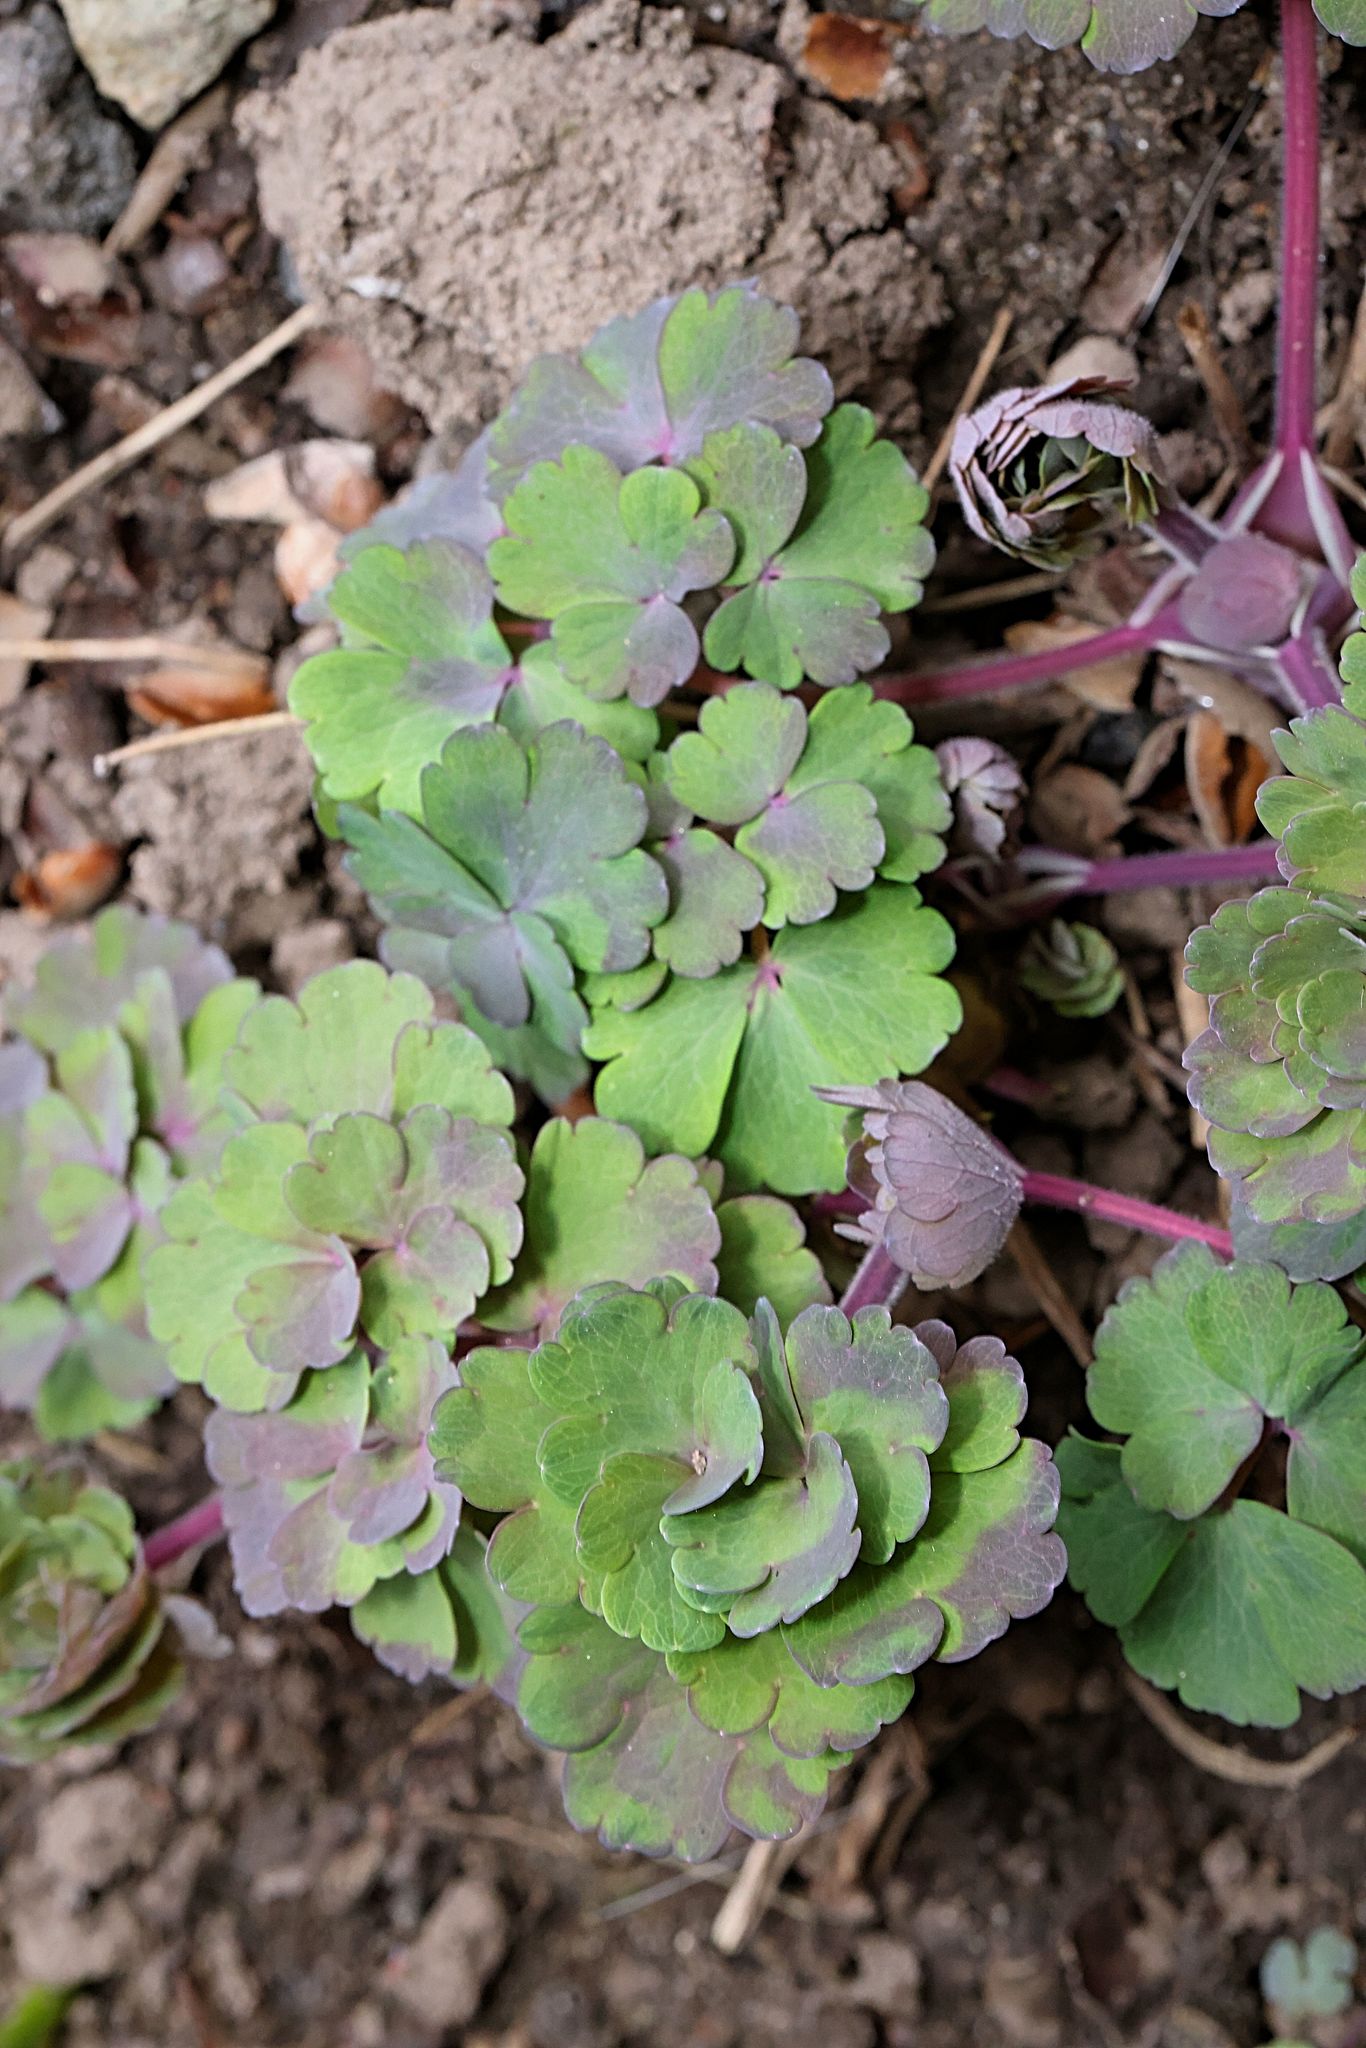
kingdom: Plantae
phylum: Tracheophyta
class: Magnoliopsida
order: Ranunculales
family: Ranunculaceae
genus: Aquilegia
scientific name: Aquilegia vulgaris
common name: Columbine
